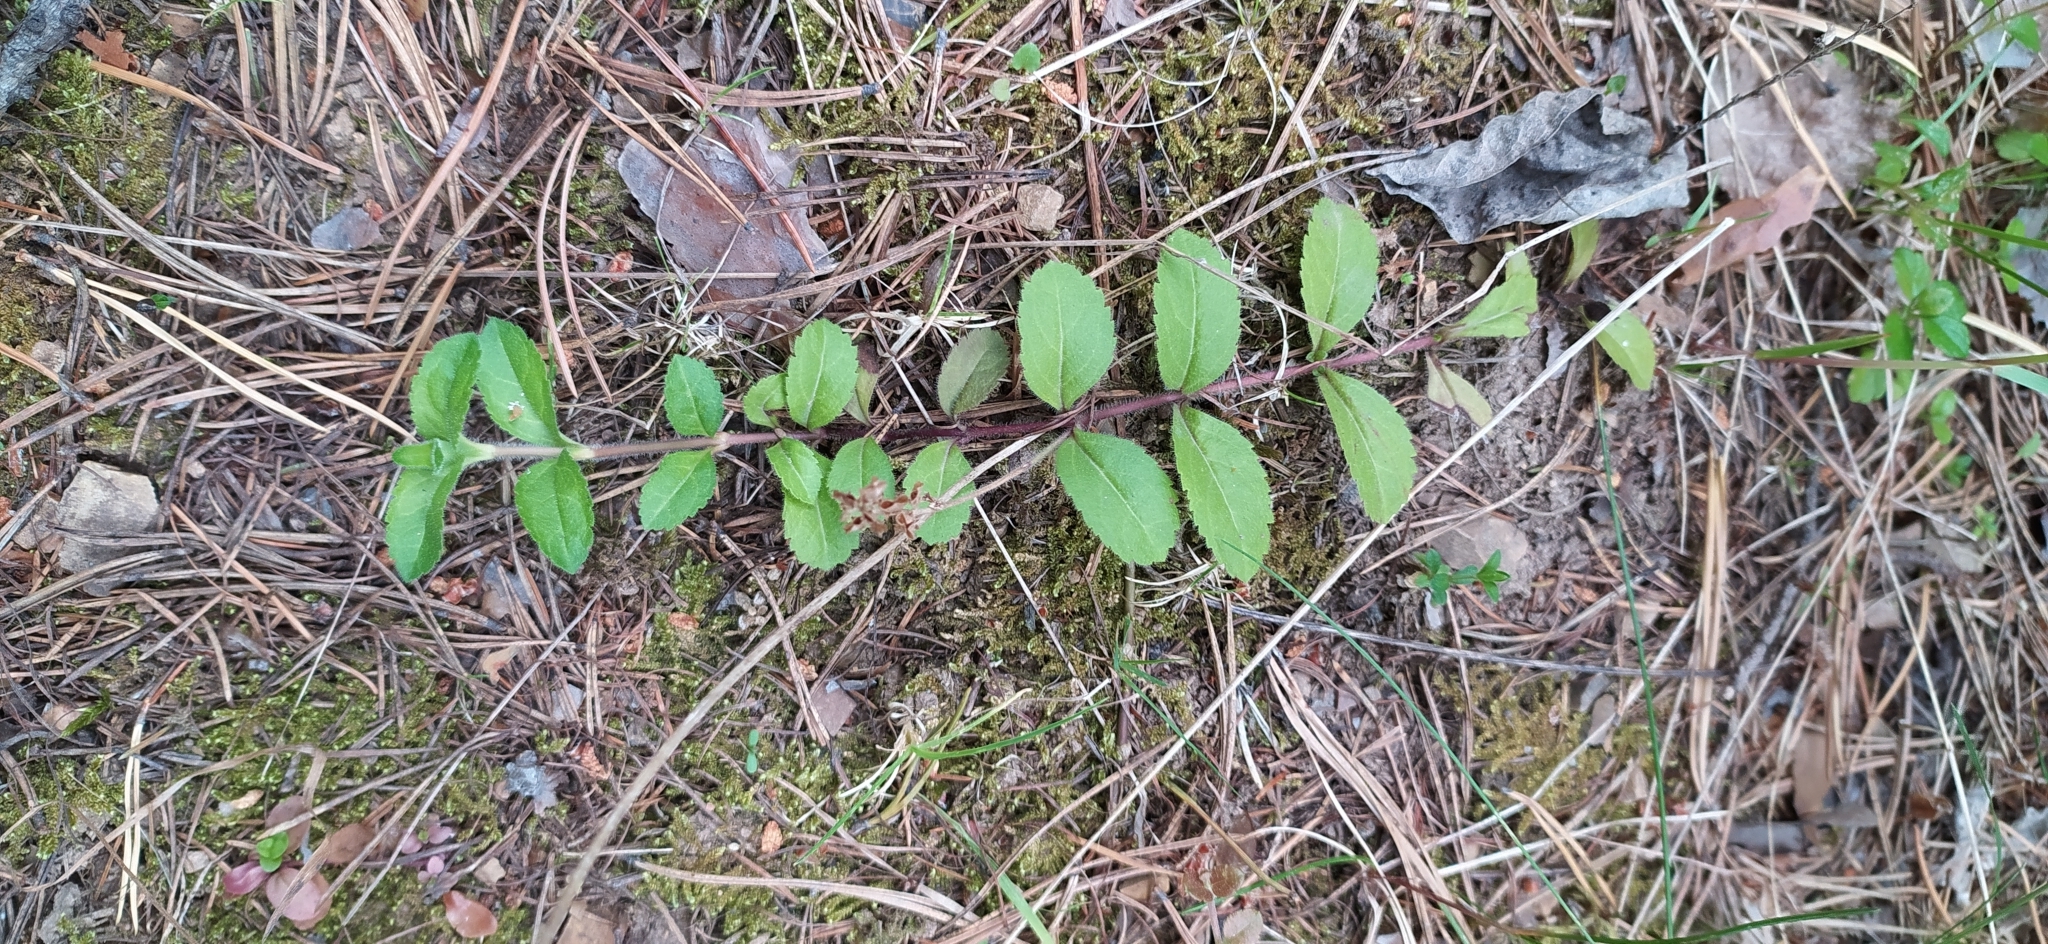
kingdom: Plantae
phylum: Tracheophyta
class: Magnoliopsida
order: Lamiales
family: Plantaginaceae
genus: Veronica
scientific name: Veronica officinalis
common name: Common speedwell
